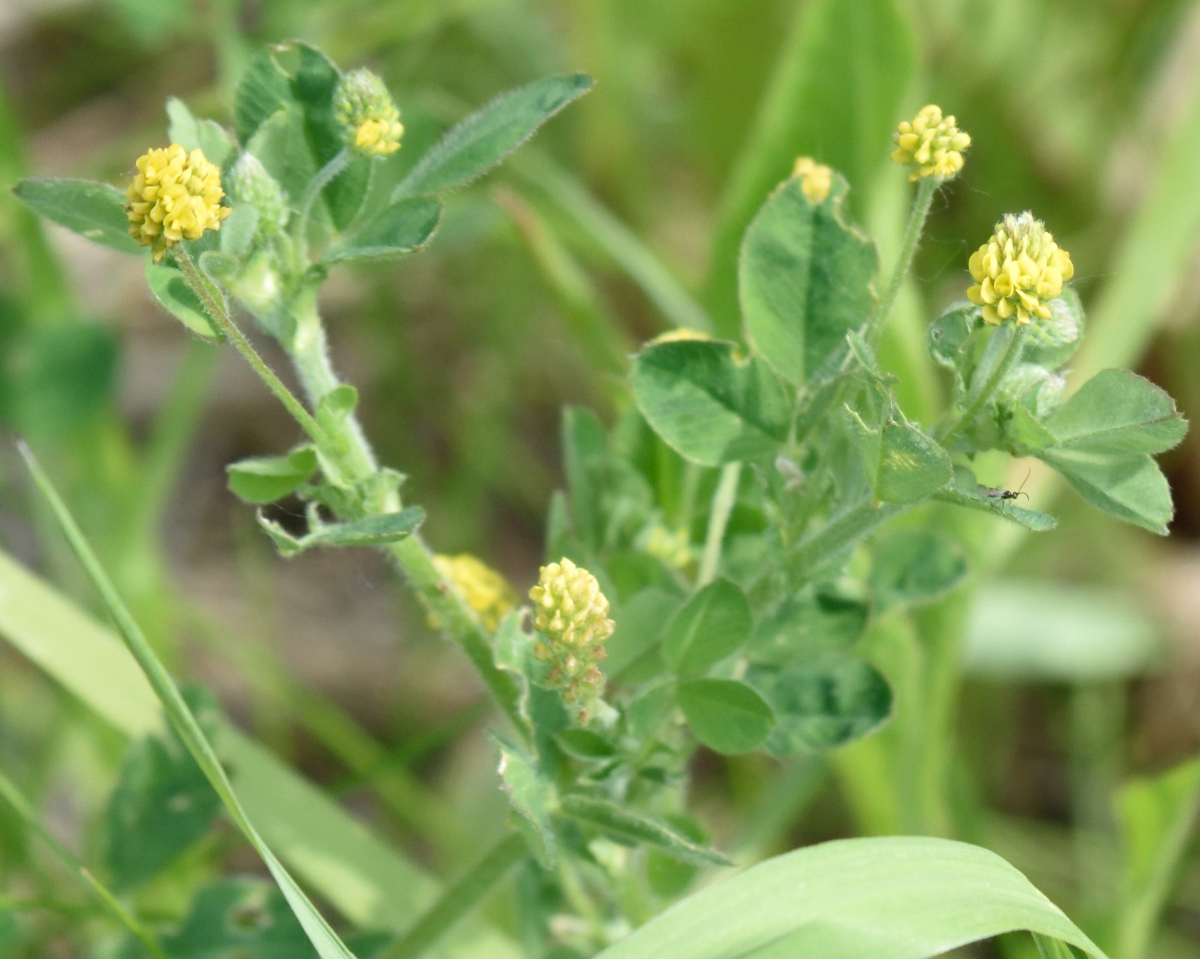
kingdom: Plantae
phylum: Tracheophyta
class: Magnoliopsida
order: Fabales
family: Fabaceae
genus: Medicago
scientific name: Medicago lupulina
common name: Black medick
